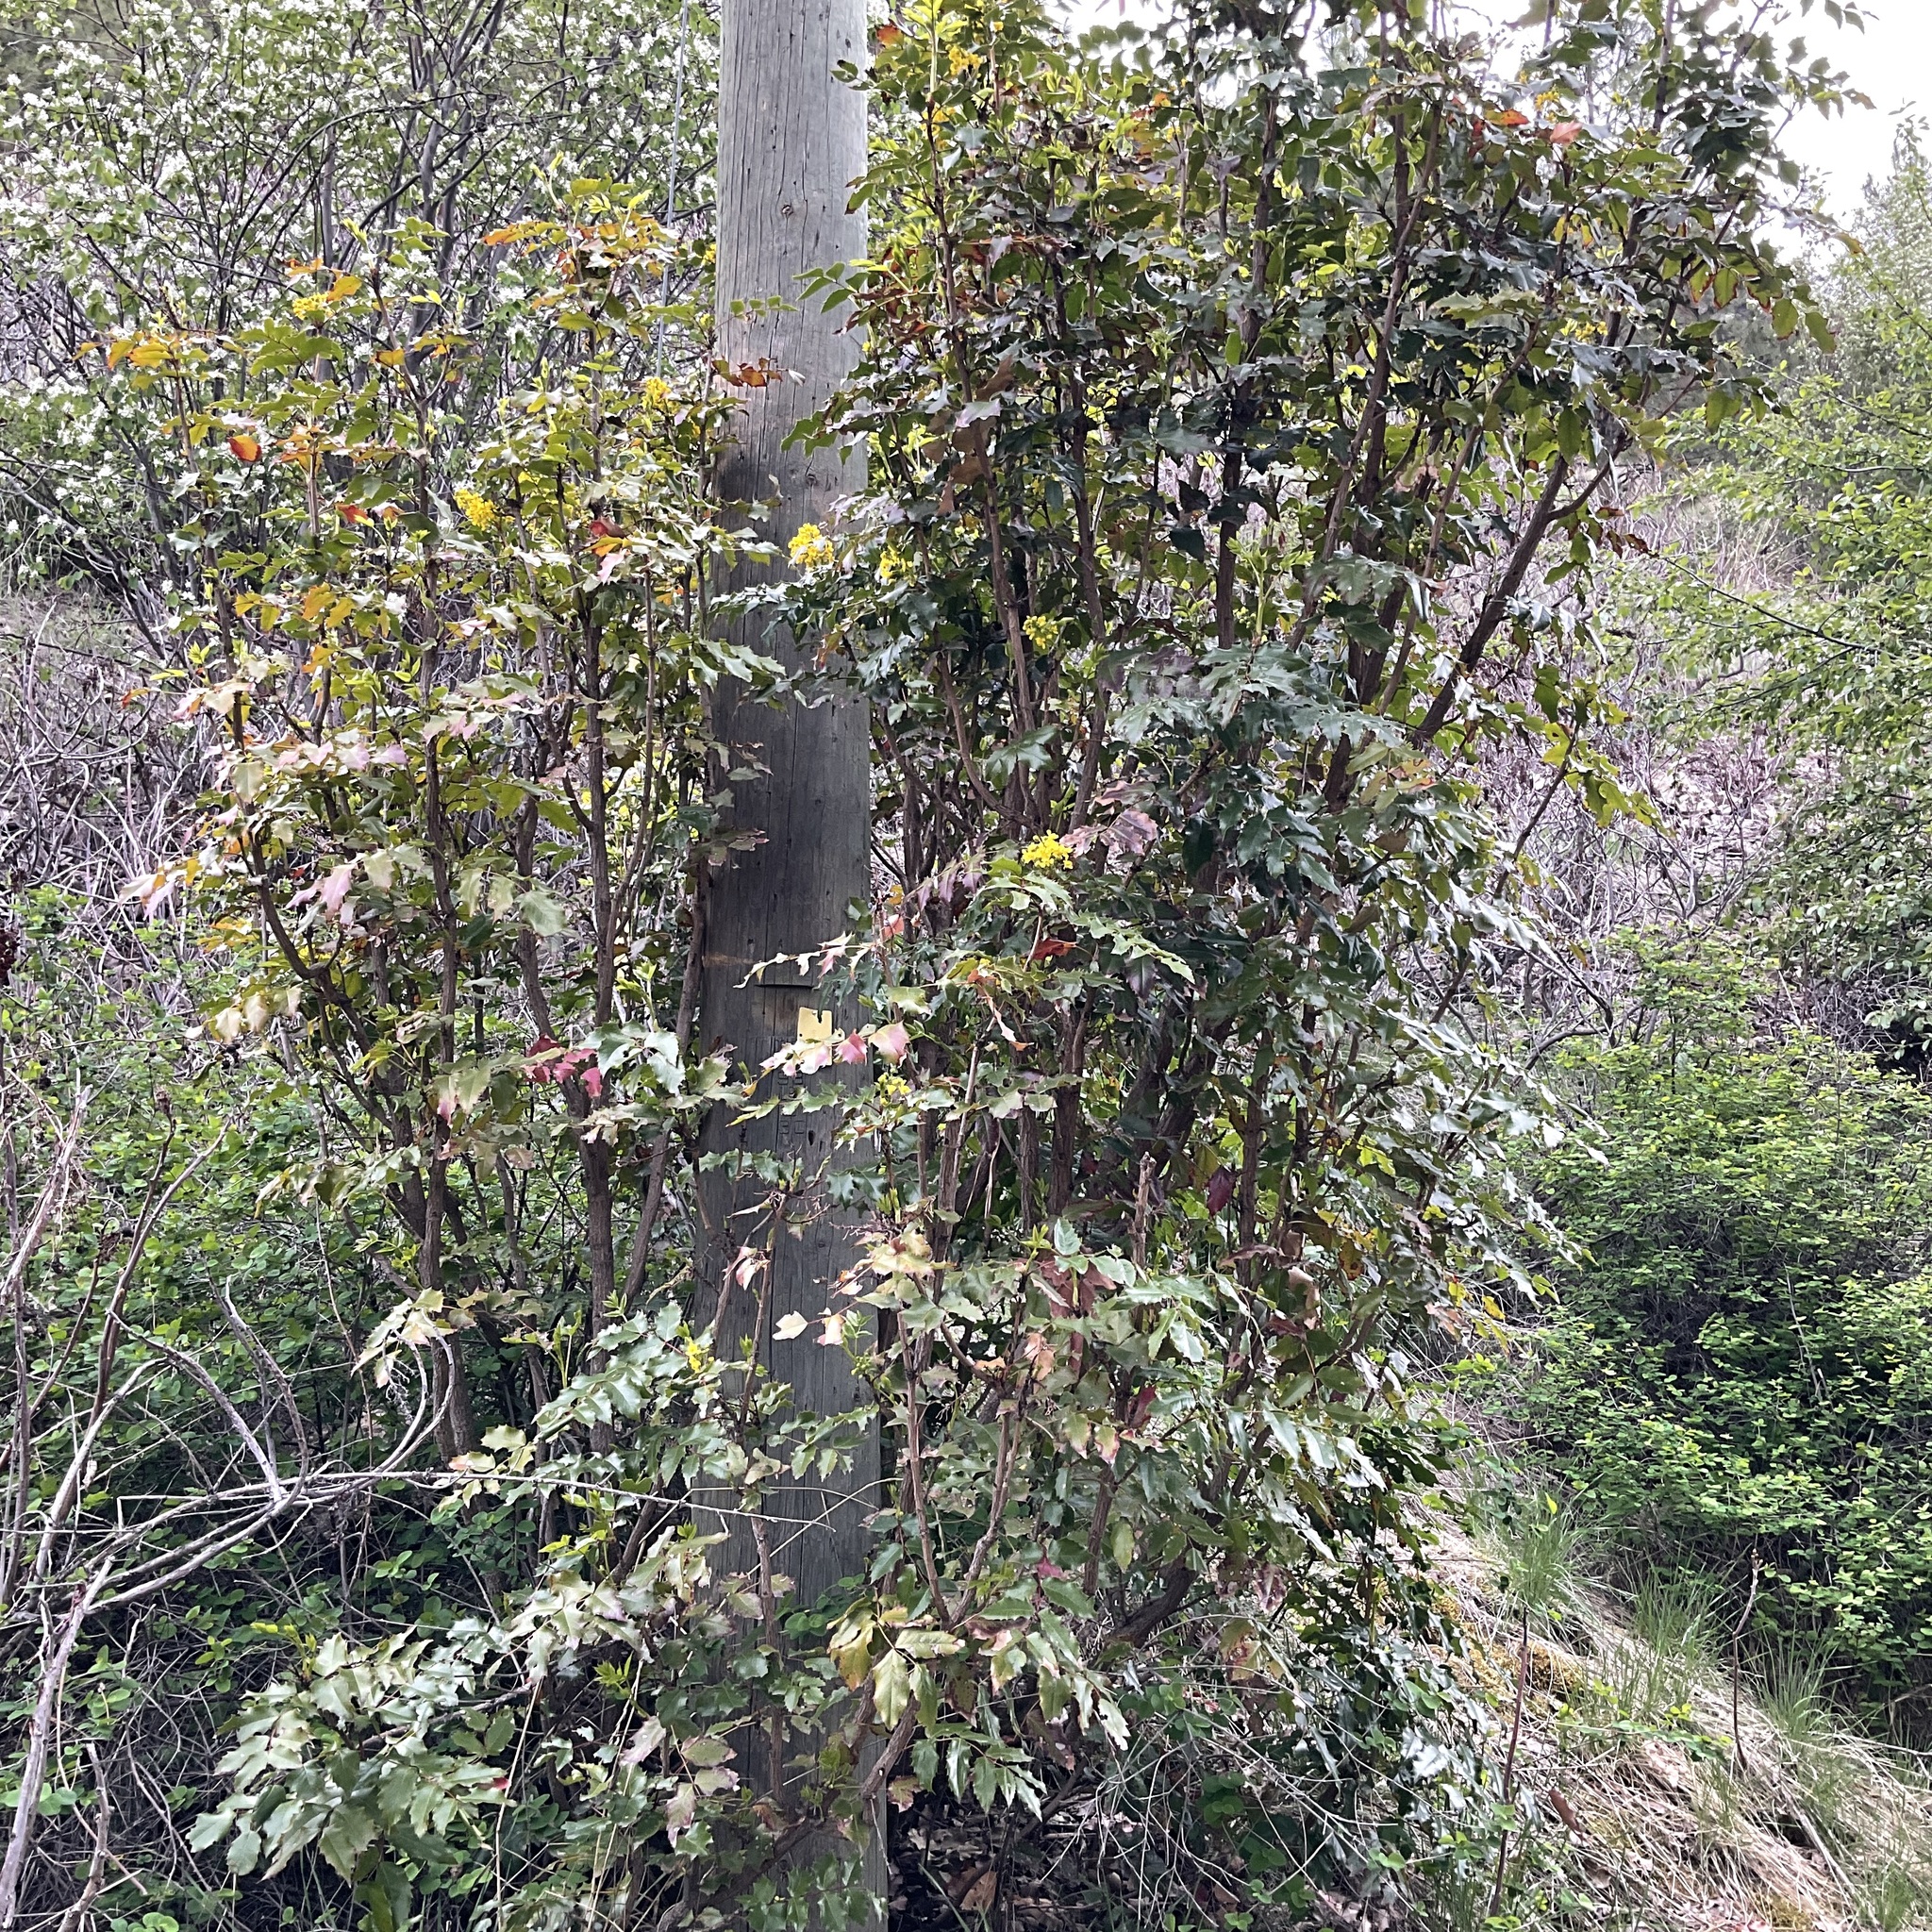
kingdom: Plantae
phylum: Tracheophyta
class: Magnoliopsida
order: Ranunculales
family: Berberidaceae
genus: Mahonia
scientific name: Mahonia aquifolium
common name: Oregon-grape
